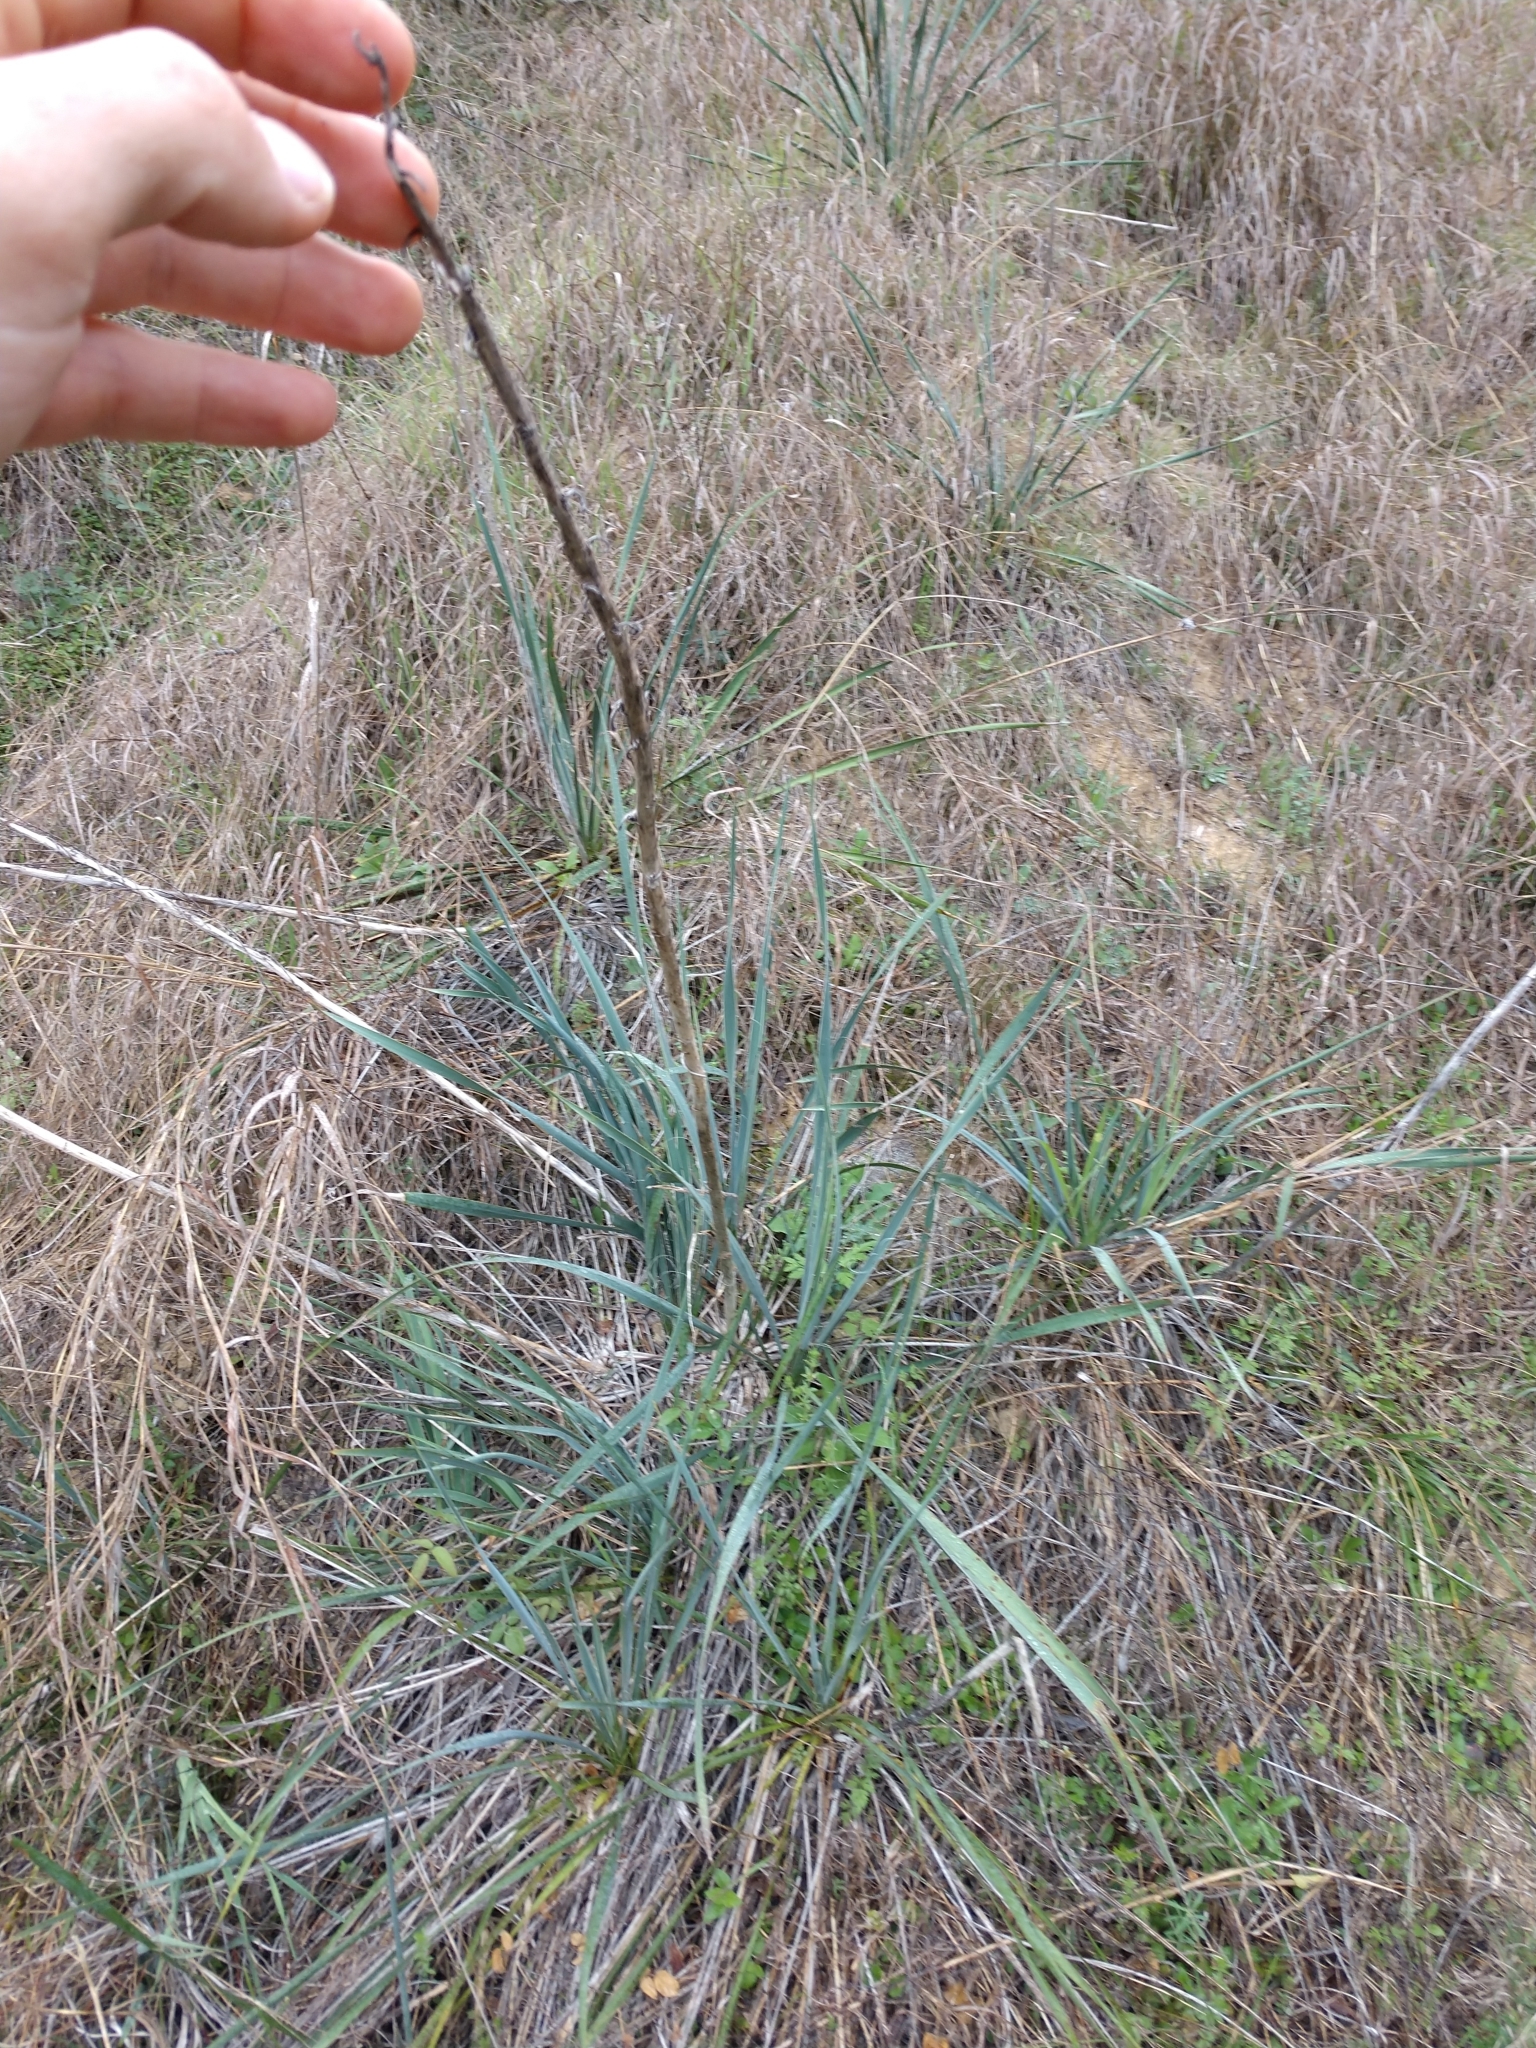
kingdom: Plantae
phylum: Tracheophyta
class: Liliopsida
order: Asparagales
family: Asparagaceae
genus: Yucca
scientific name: Yucca arkansana
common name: Arkansas yucca
